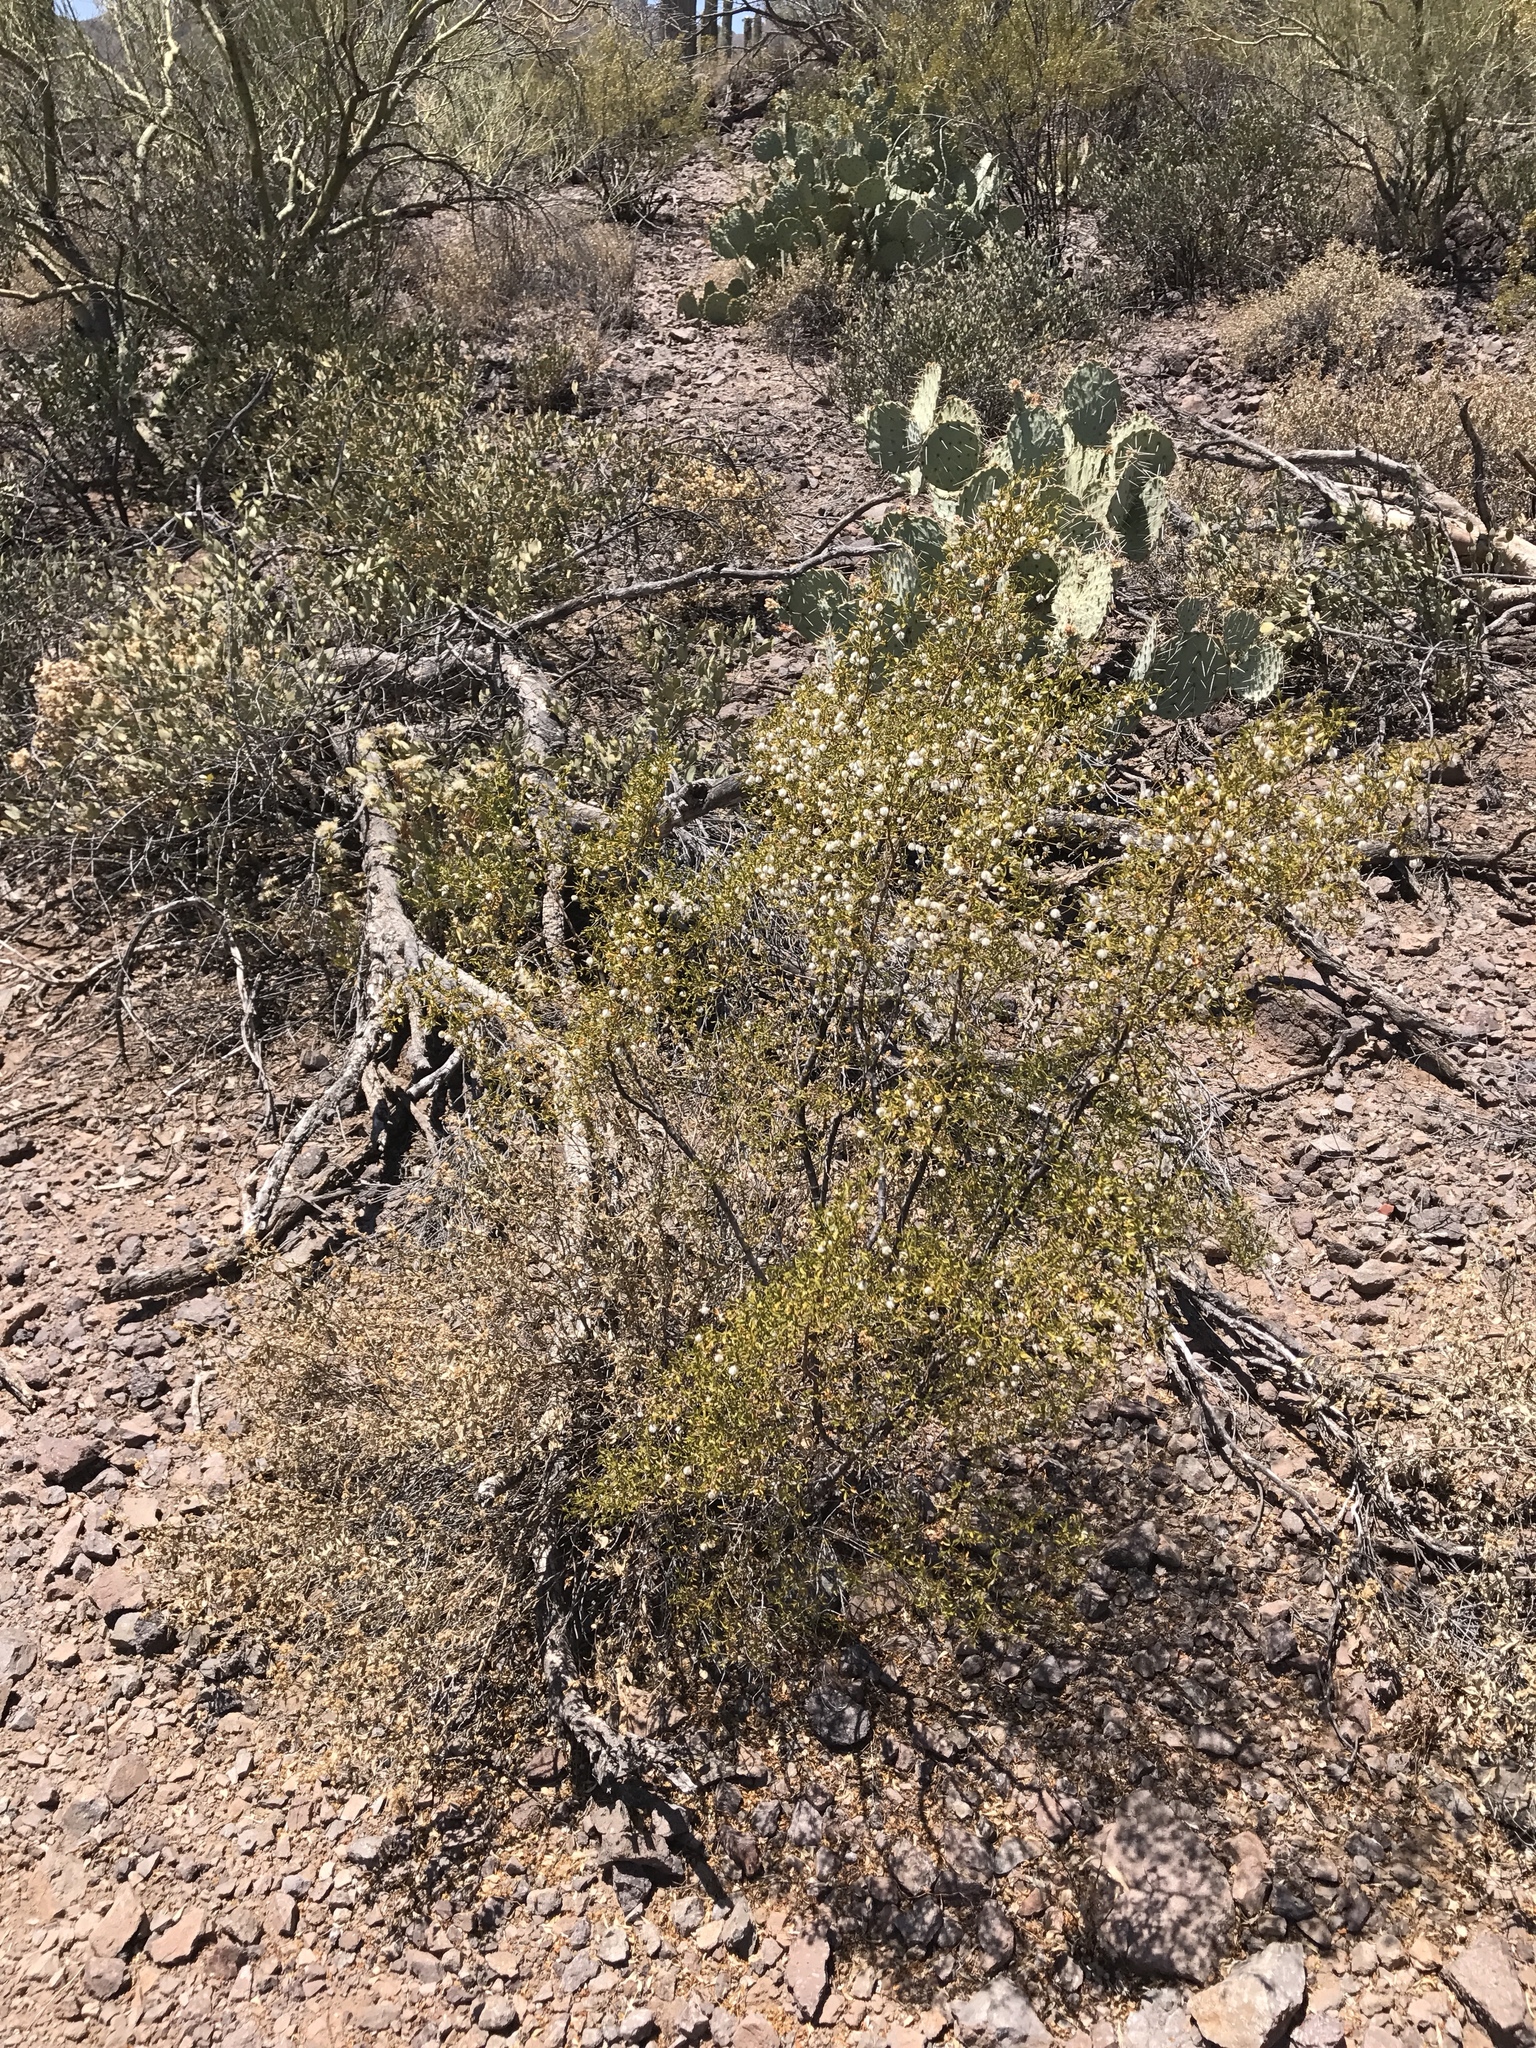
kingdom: Plantae
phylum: Tracheophyta
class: Magnoliopsida
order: Zygophyllales
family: Zygophyllaceae
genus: Larrea
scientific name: Larrea tridentata
